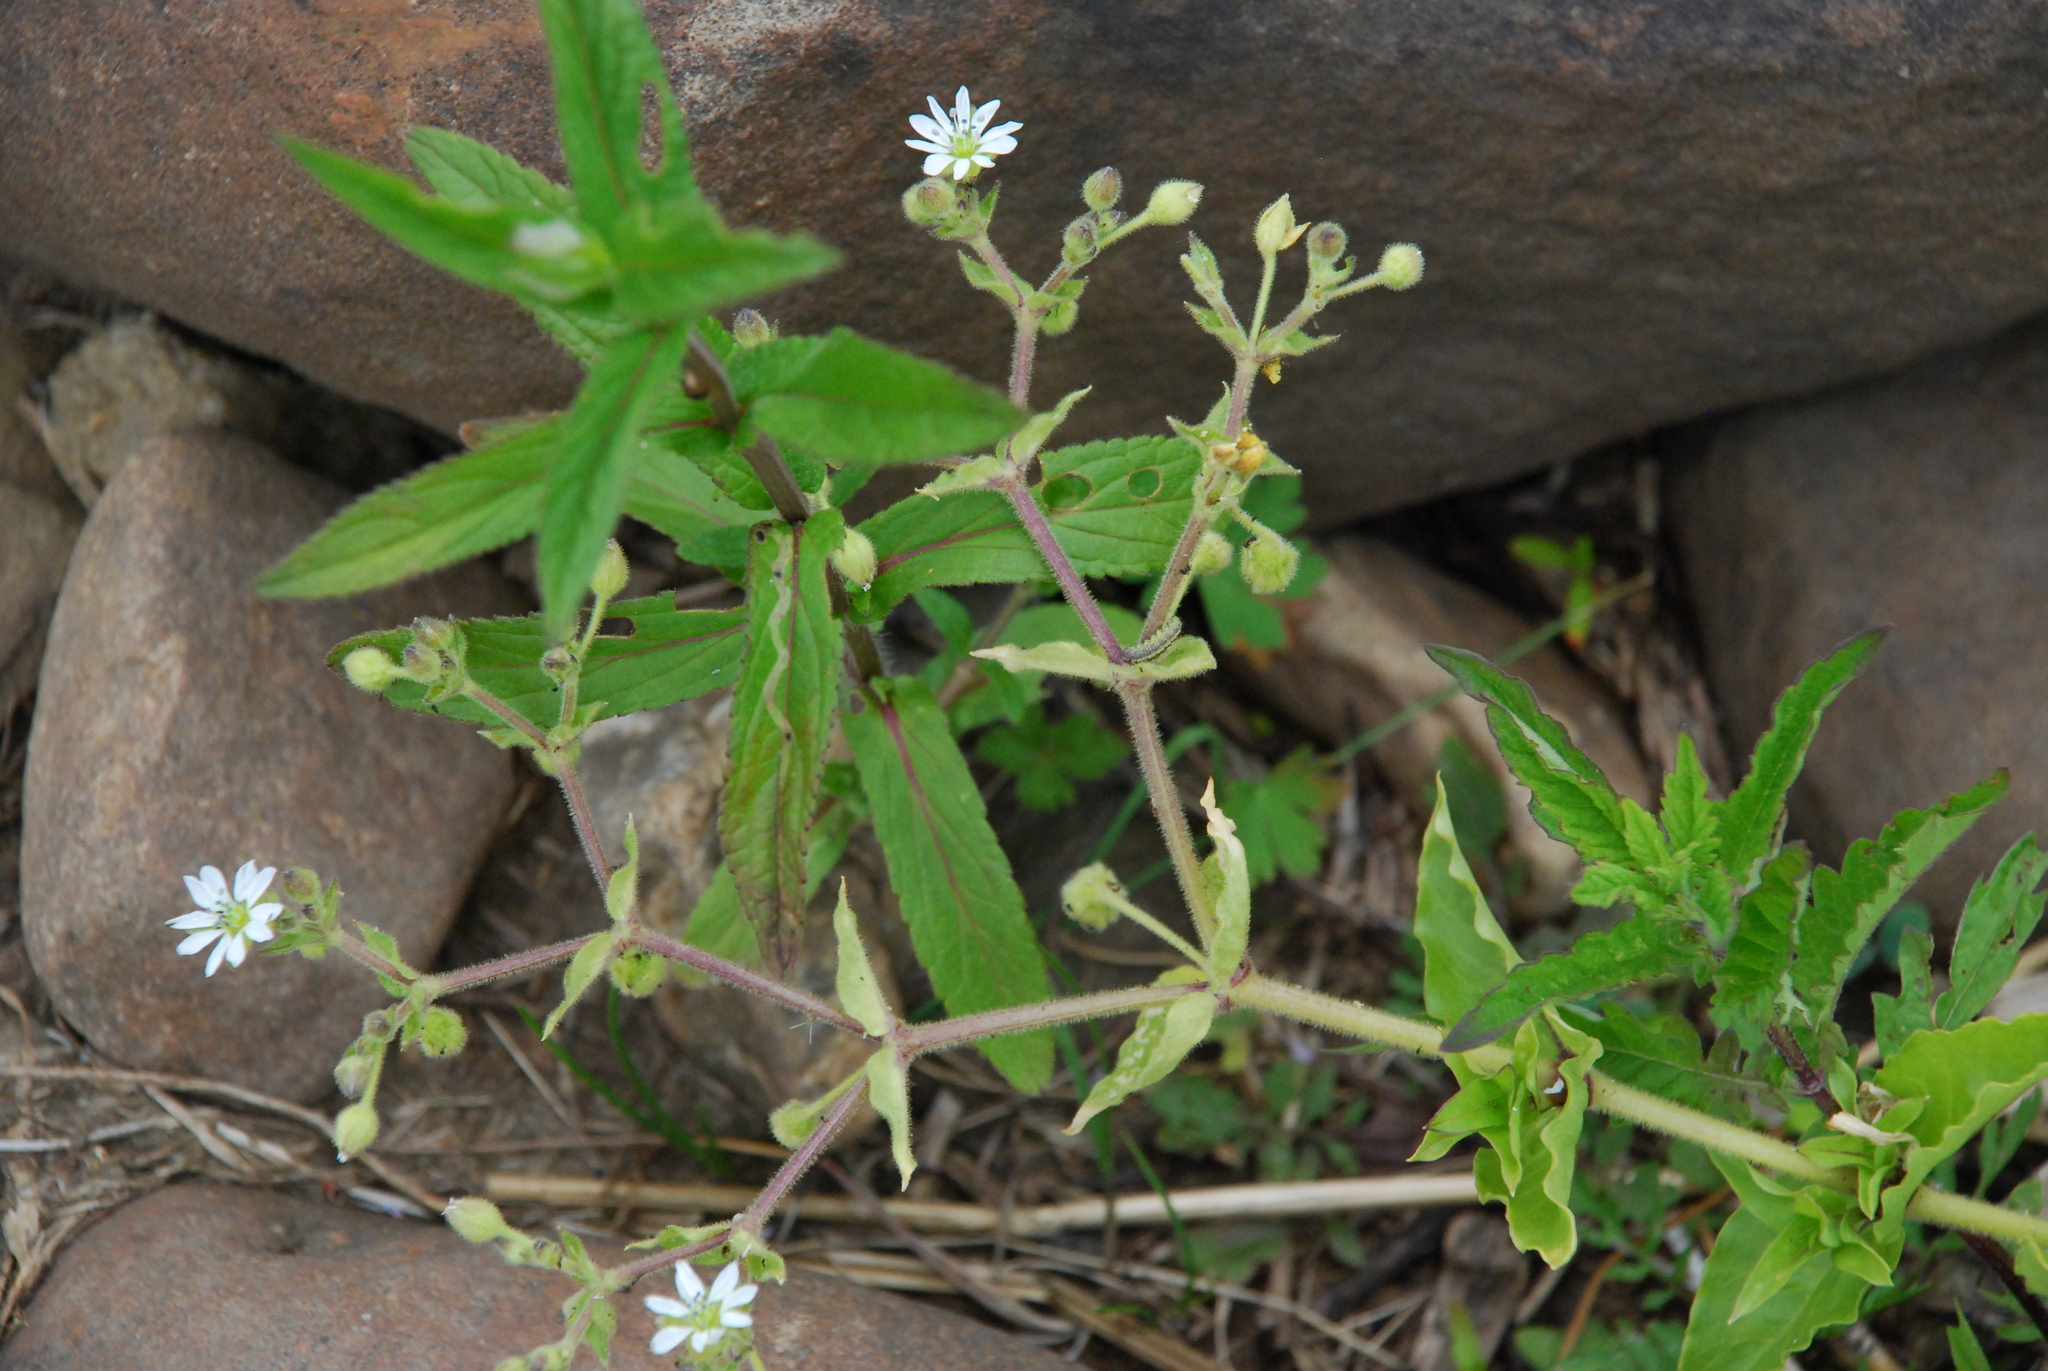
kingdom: Plantae
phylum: Tracheophyta
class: Magnoliopsida
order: Caryophyllales
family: Caryophyllaceae
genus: Stellaria
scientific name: Stellaria aquatica
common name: Water chickweed
